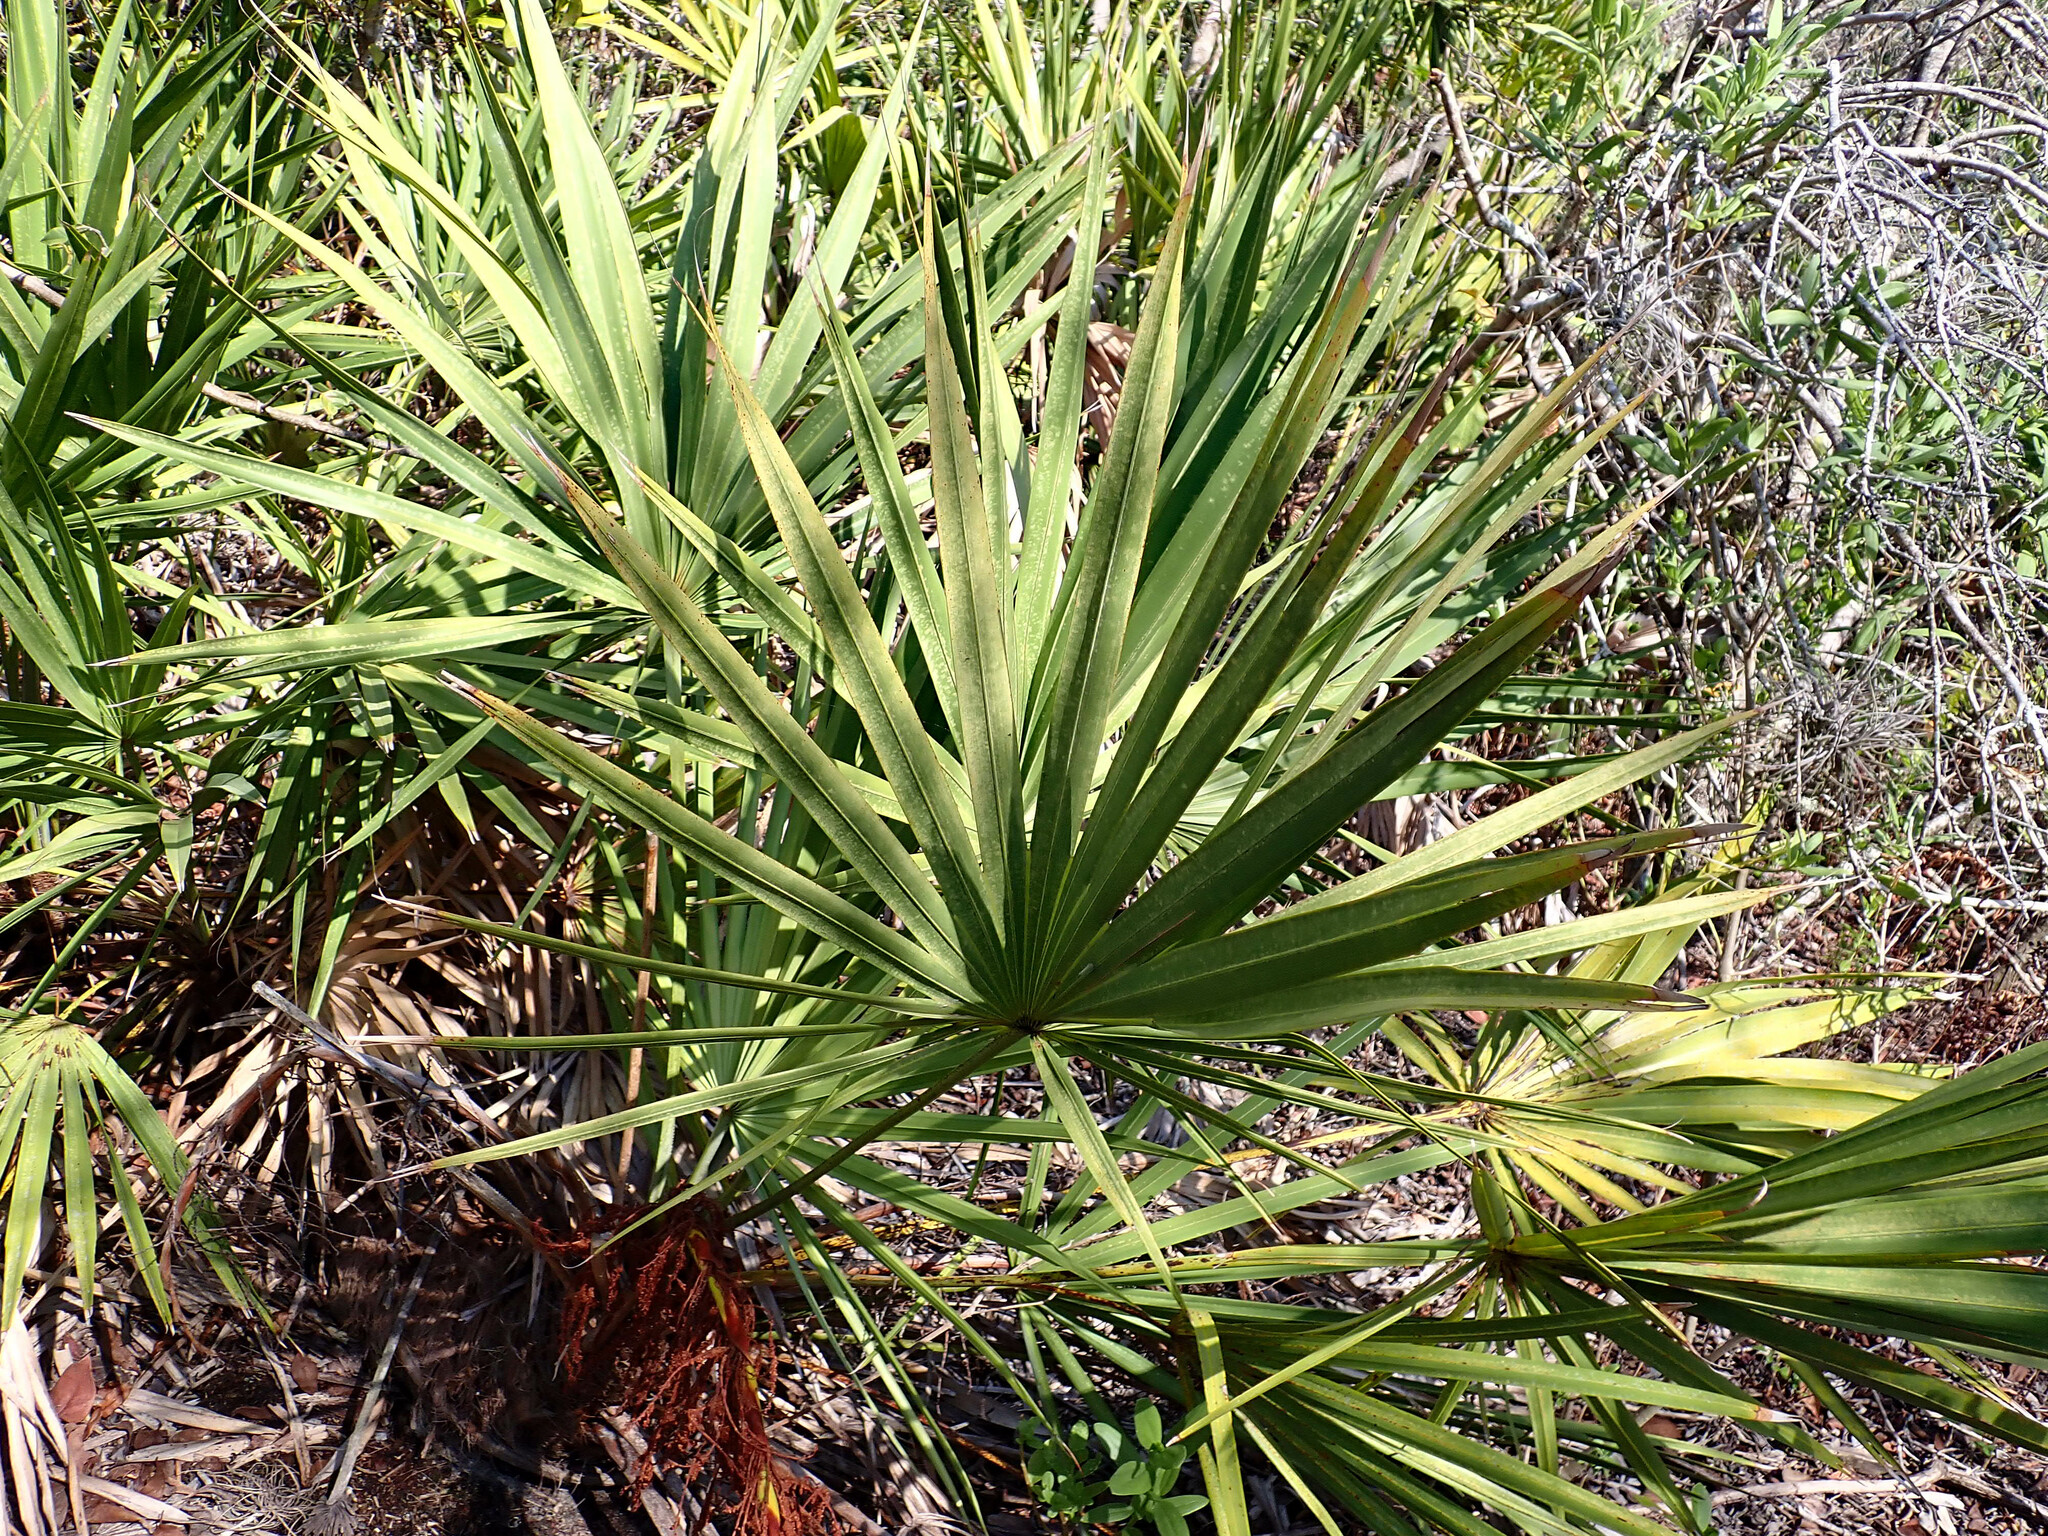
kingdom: Plantae
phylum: Tracheophyta
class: Liliopsida
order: Arecales
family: Arecaceae
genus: Serenoa
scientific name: Serenoa repens
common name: Saw-palmetto
